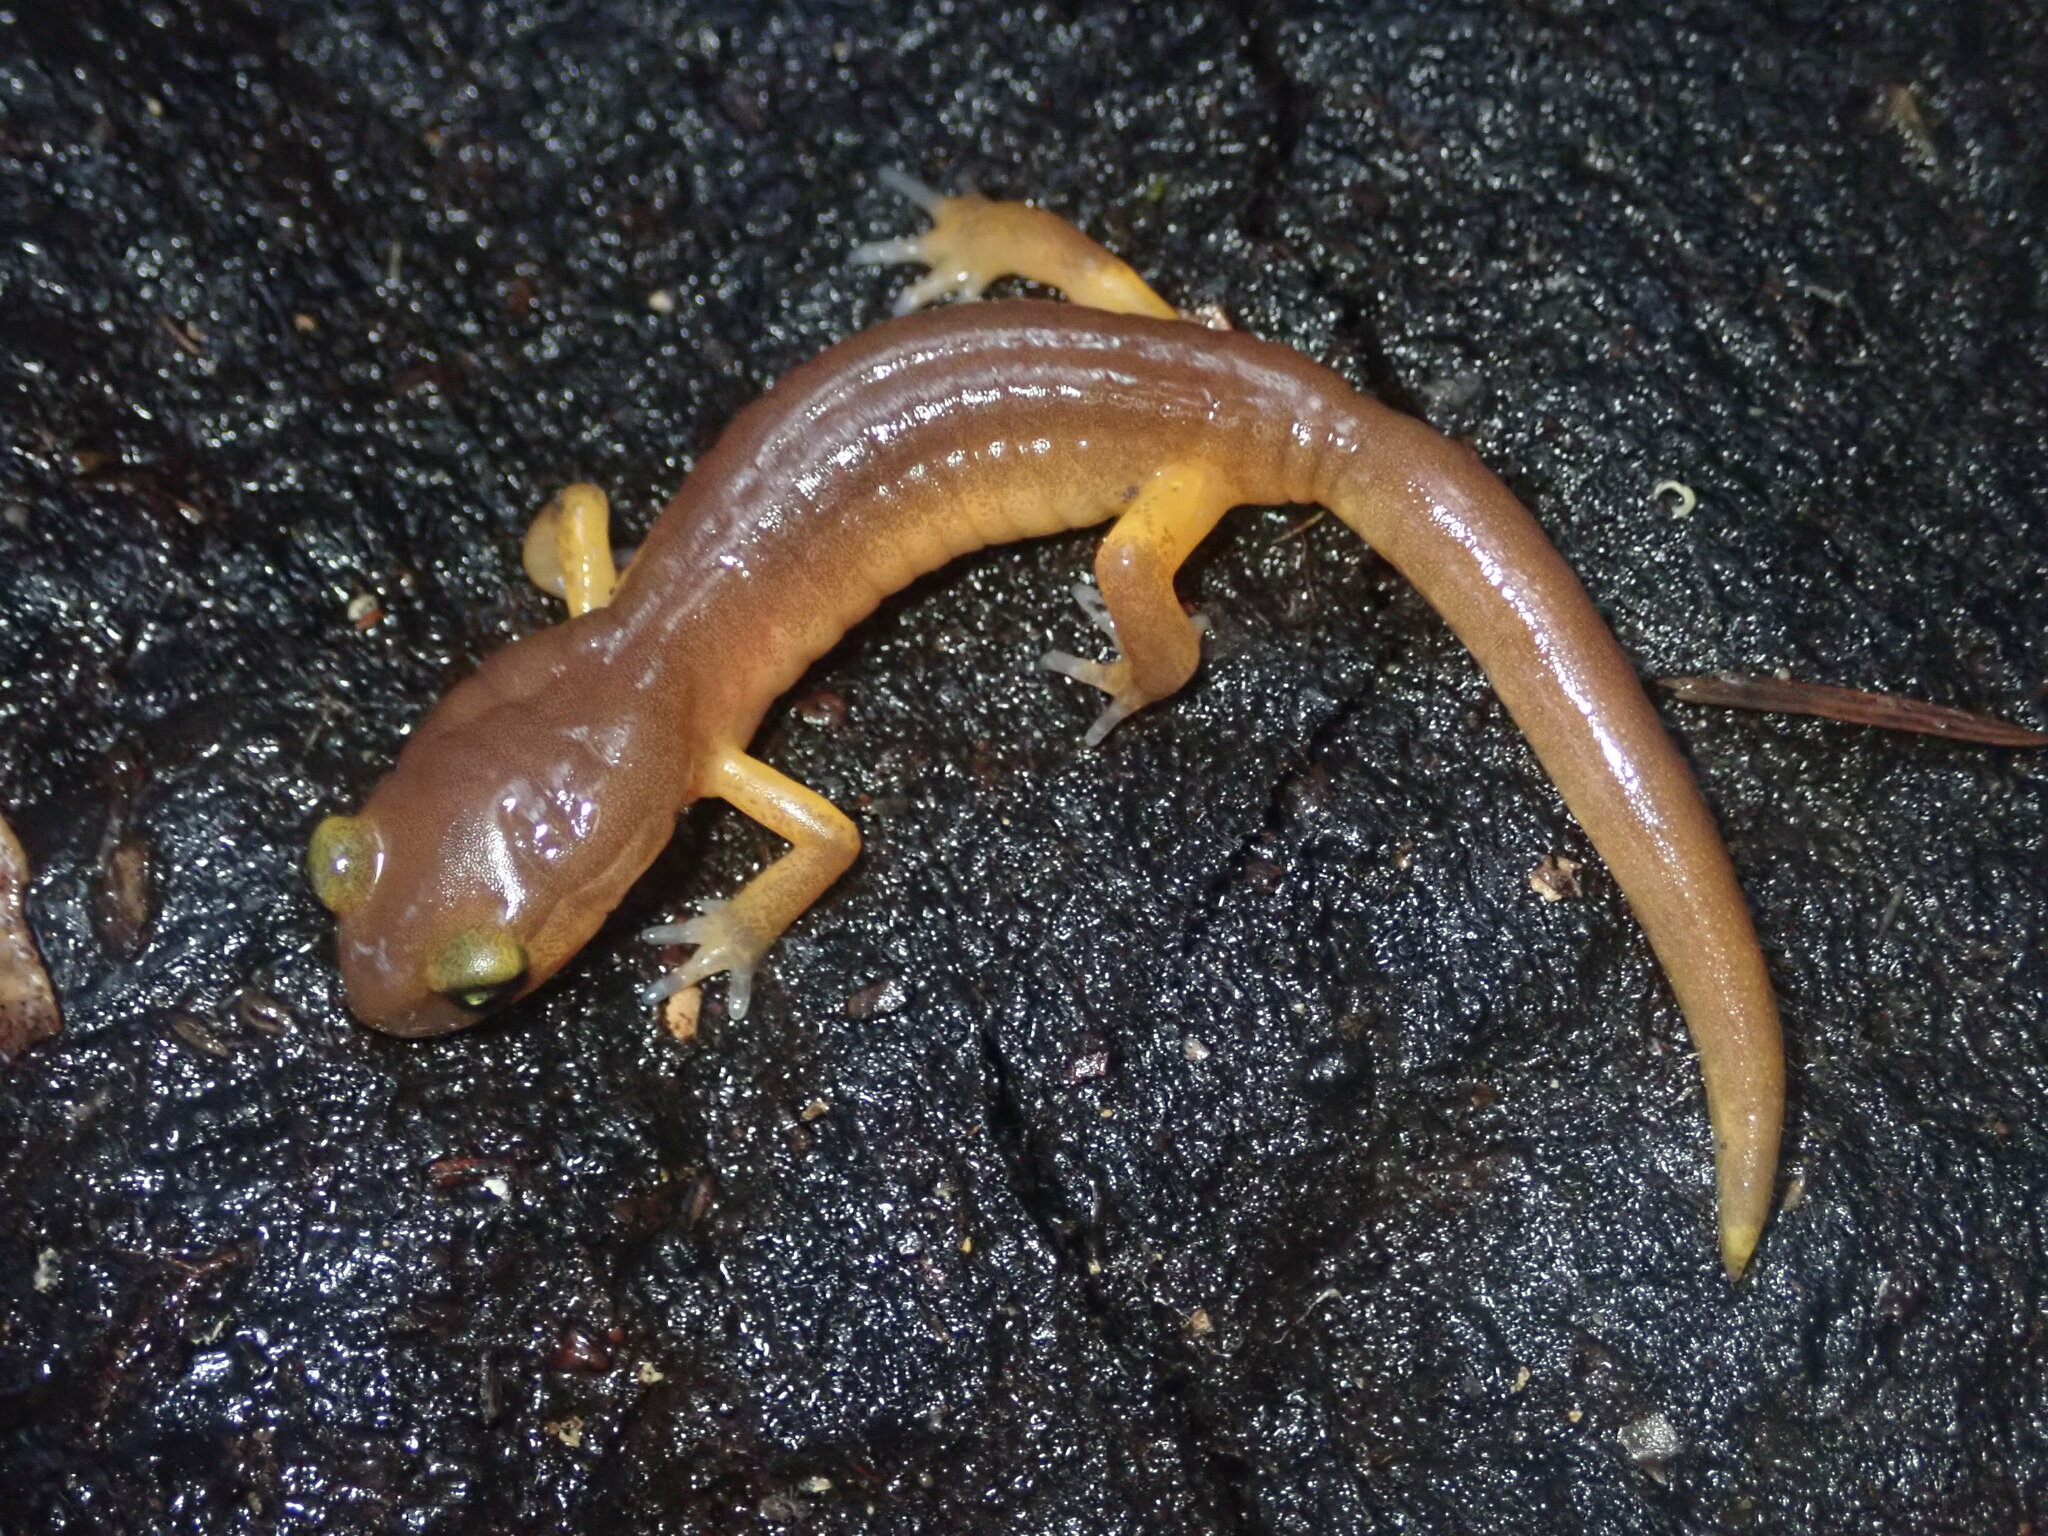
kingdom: Animalia
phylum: Chordata
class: Amphibia
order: Caudata
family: Plethodontidae
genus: Ensatina
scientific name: Ensatina eschscholtzii
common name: Ensatina
